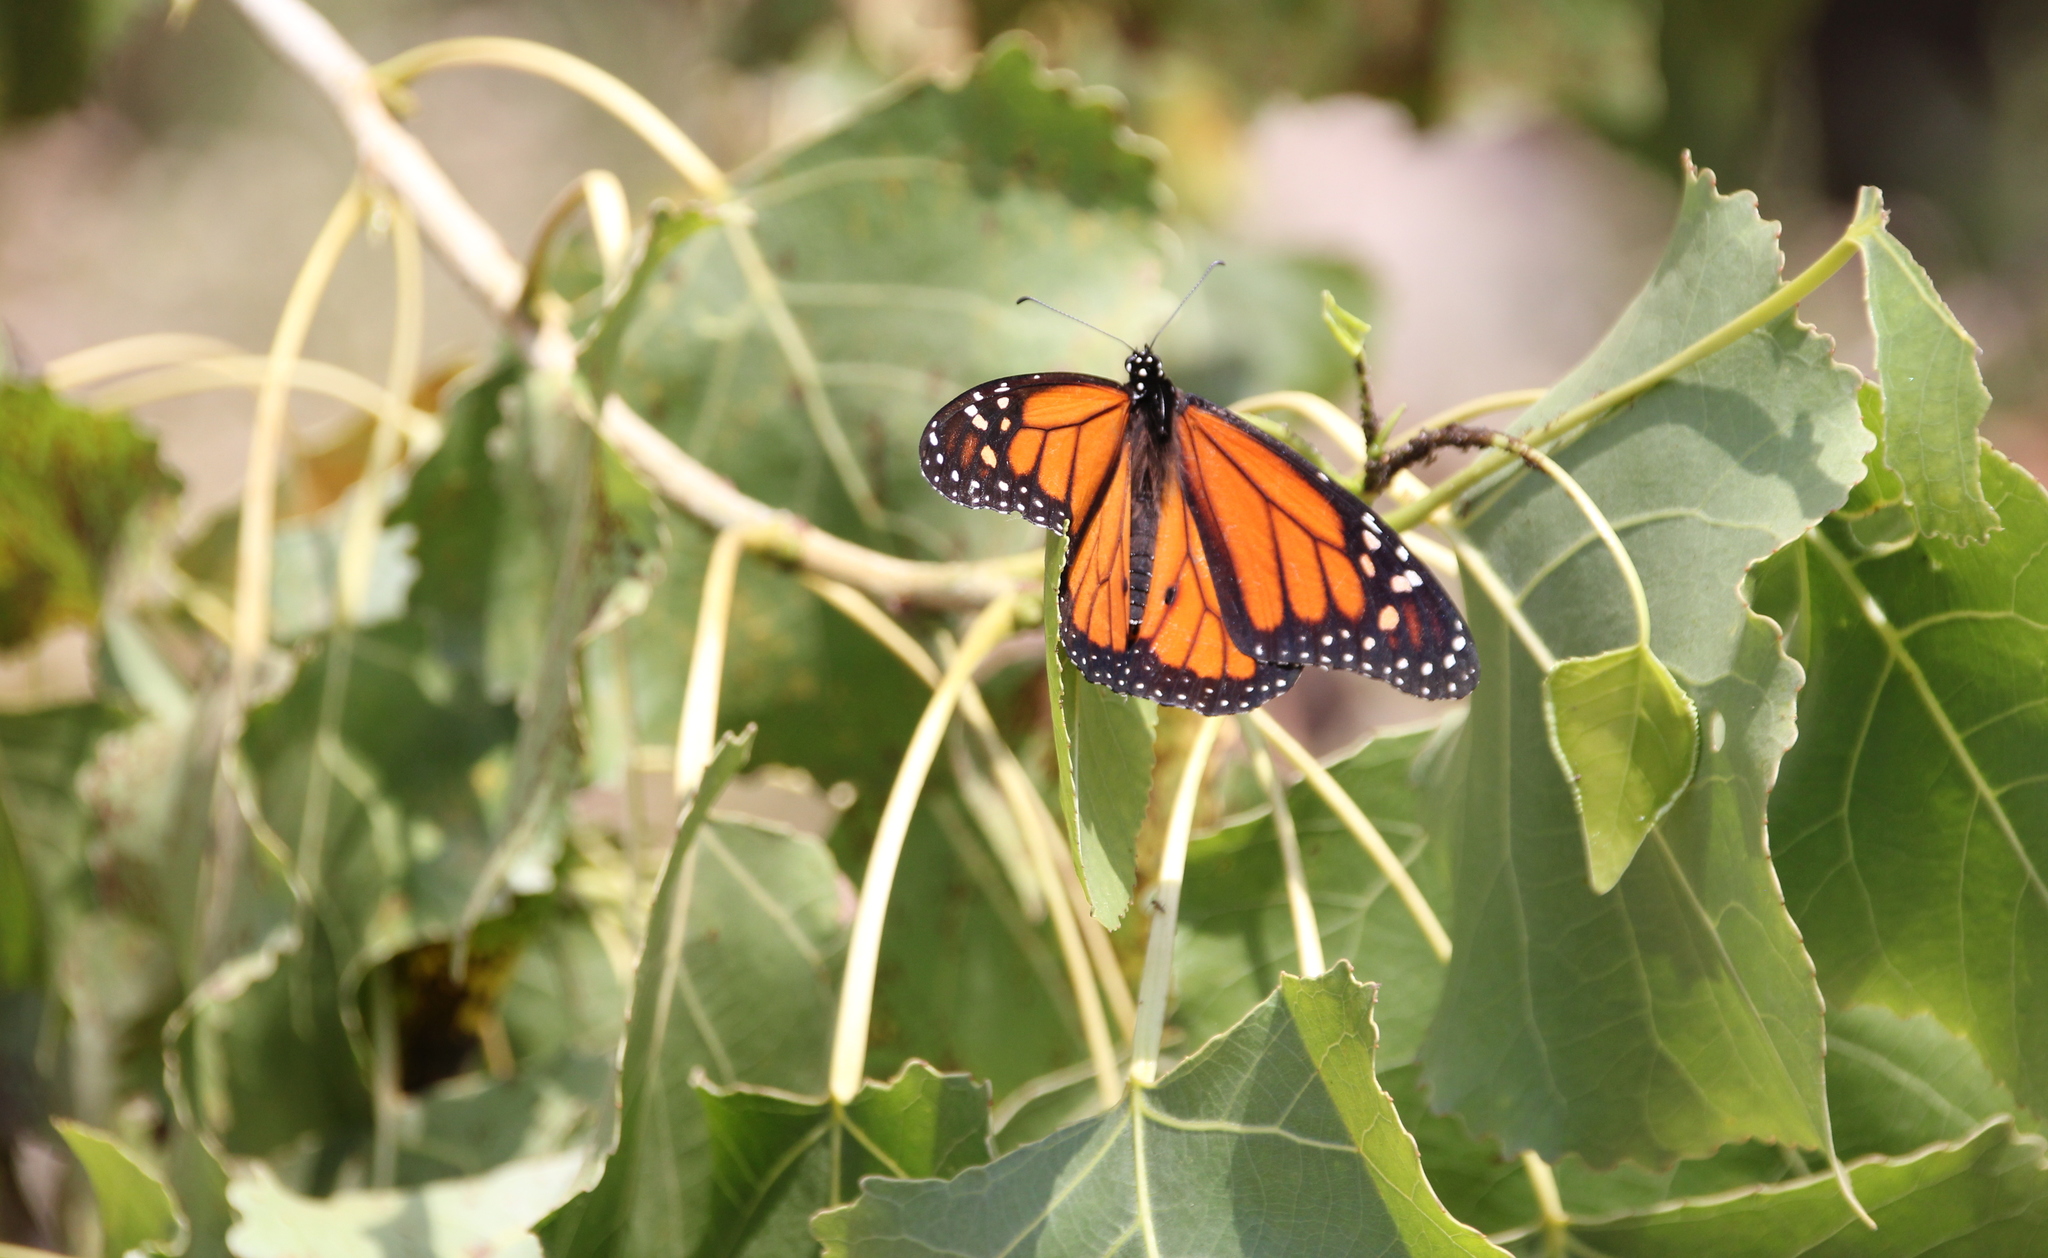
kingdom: Plantae
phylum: Tracheophyta
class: Magnoliopsida
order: Malpighiales
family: Salicaceae
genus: Populus
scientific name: Populus fremontii
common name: Fremont's cottonwood
